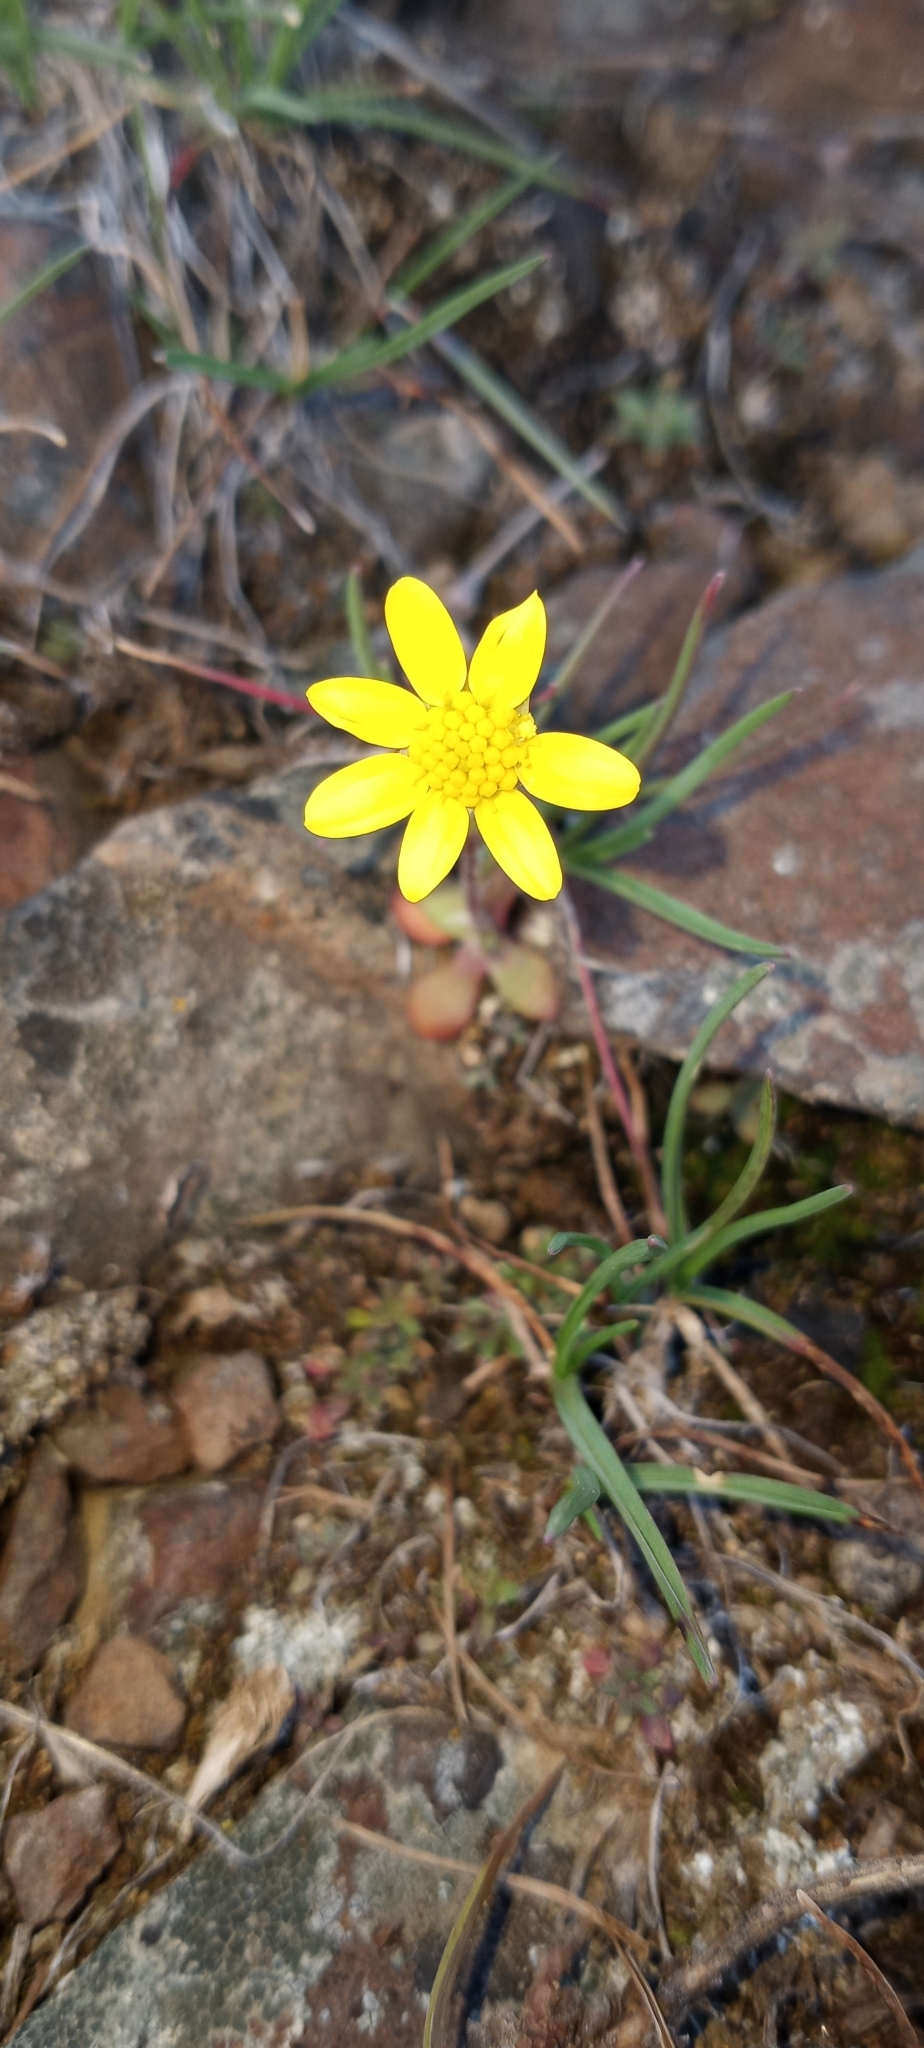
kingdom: Plantae
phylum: Tracheophyta
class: Magnoliopsida
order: Asterales
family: Asteraceae
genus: Crocidium
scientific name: Crocidium multicaule
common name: Common spring gold
